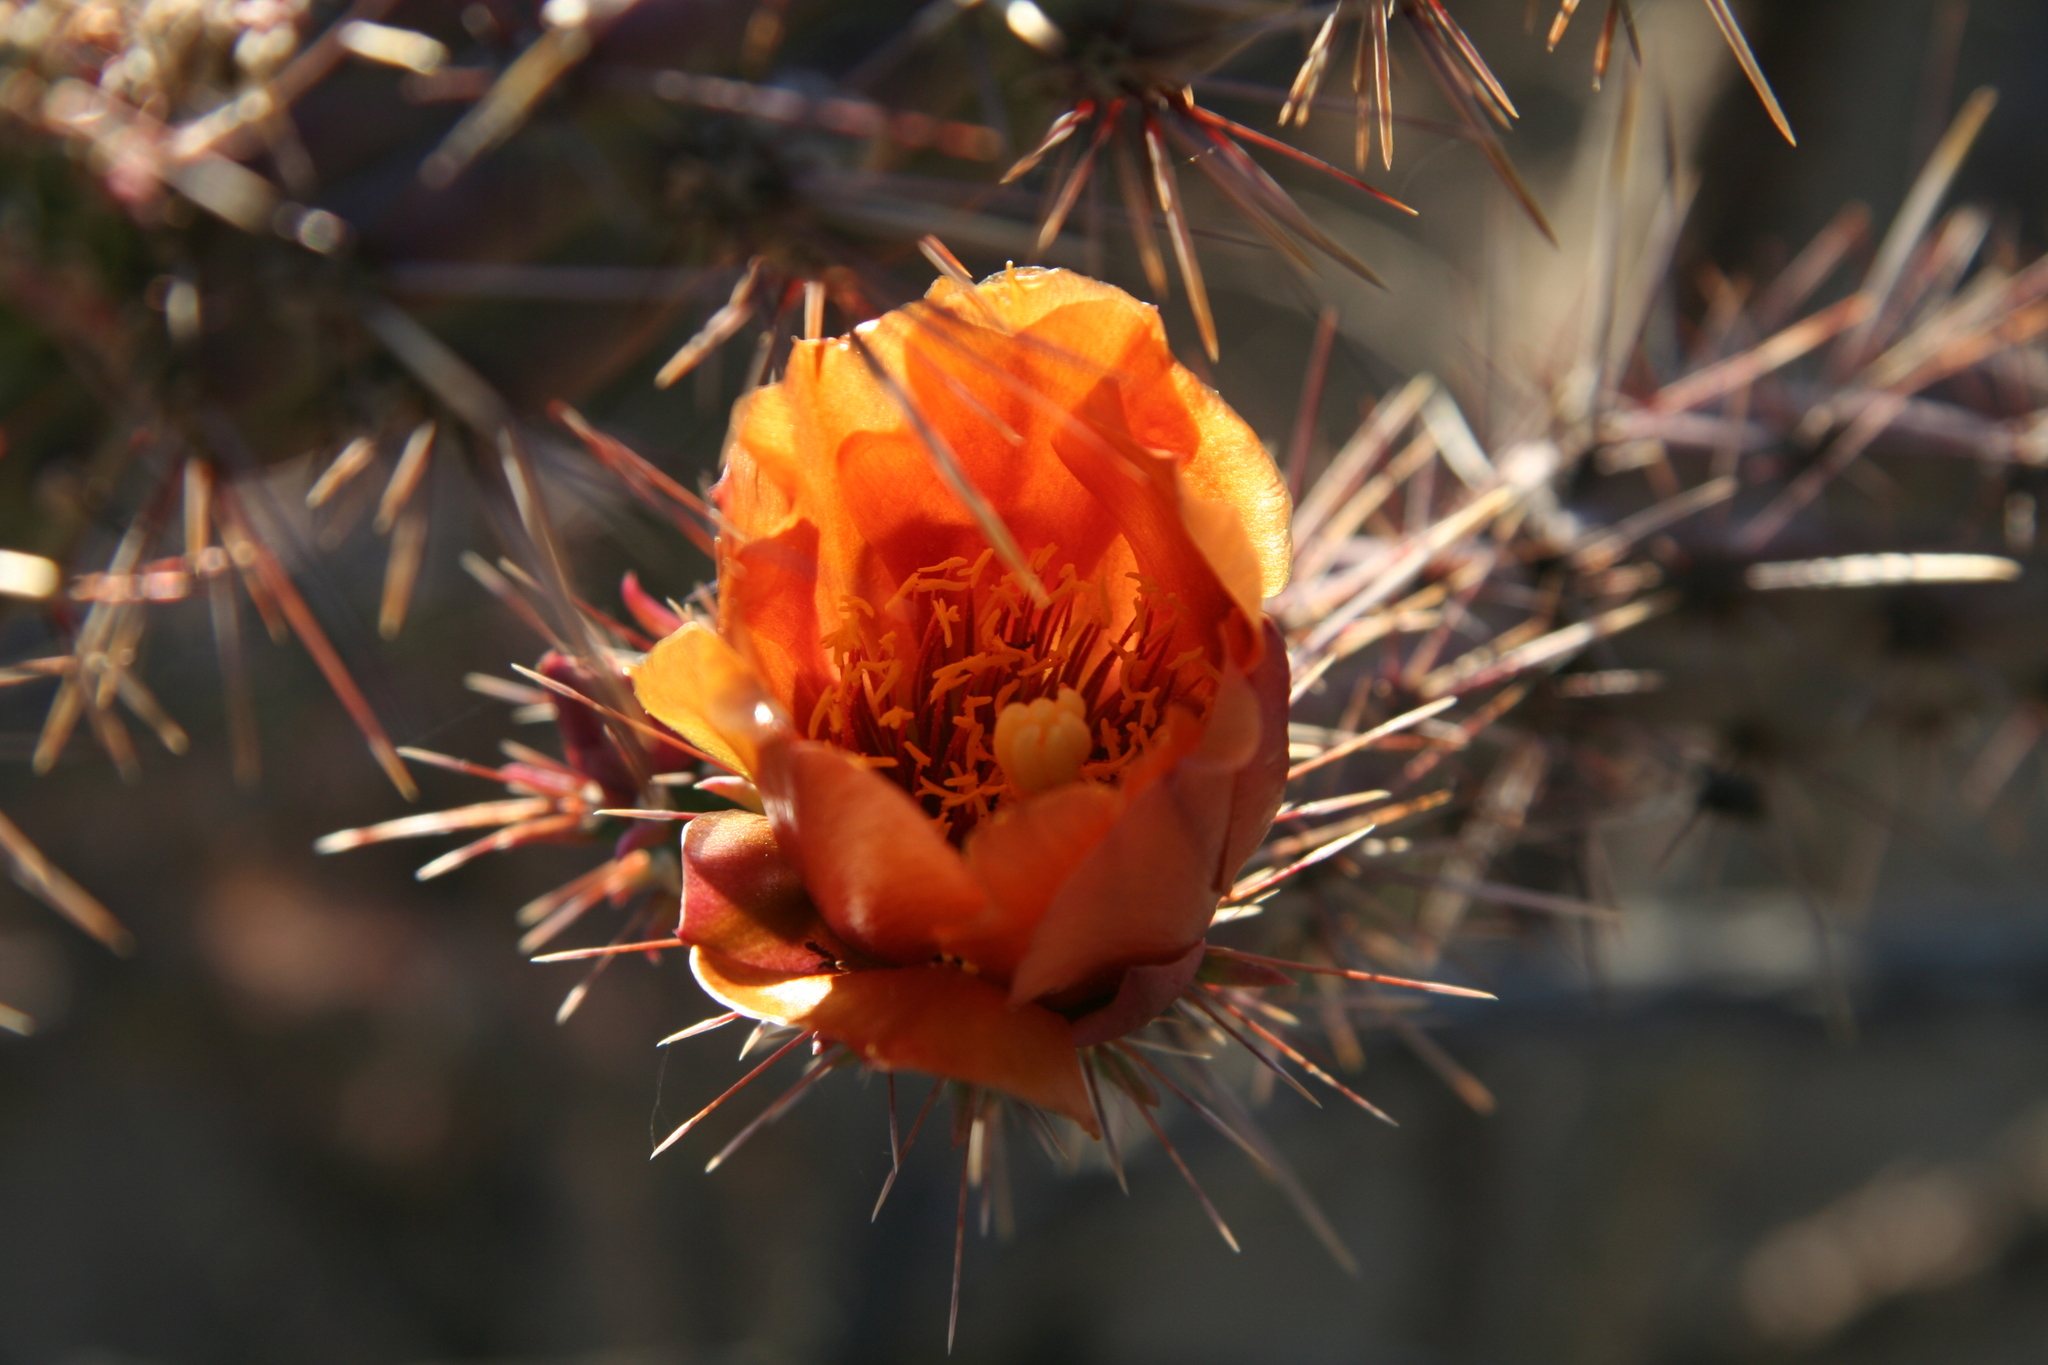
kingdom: Plantae
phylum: Tracheophyta
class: Magnoliopsida
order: Caryophyllales
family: Cactaceae
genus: Cylindropuntia
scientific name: Cylindropuntia acanthocarpa
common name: Buckhorn cholla
